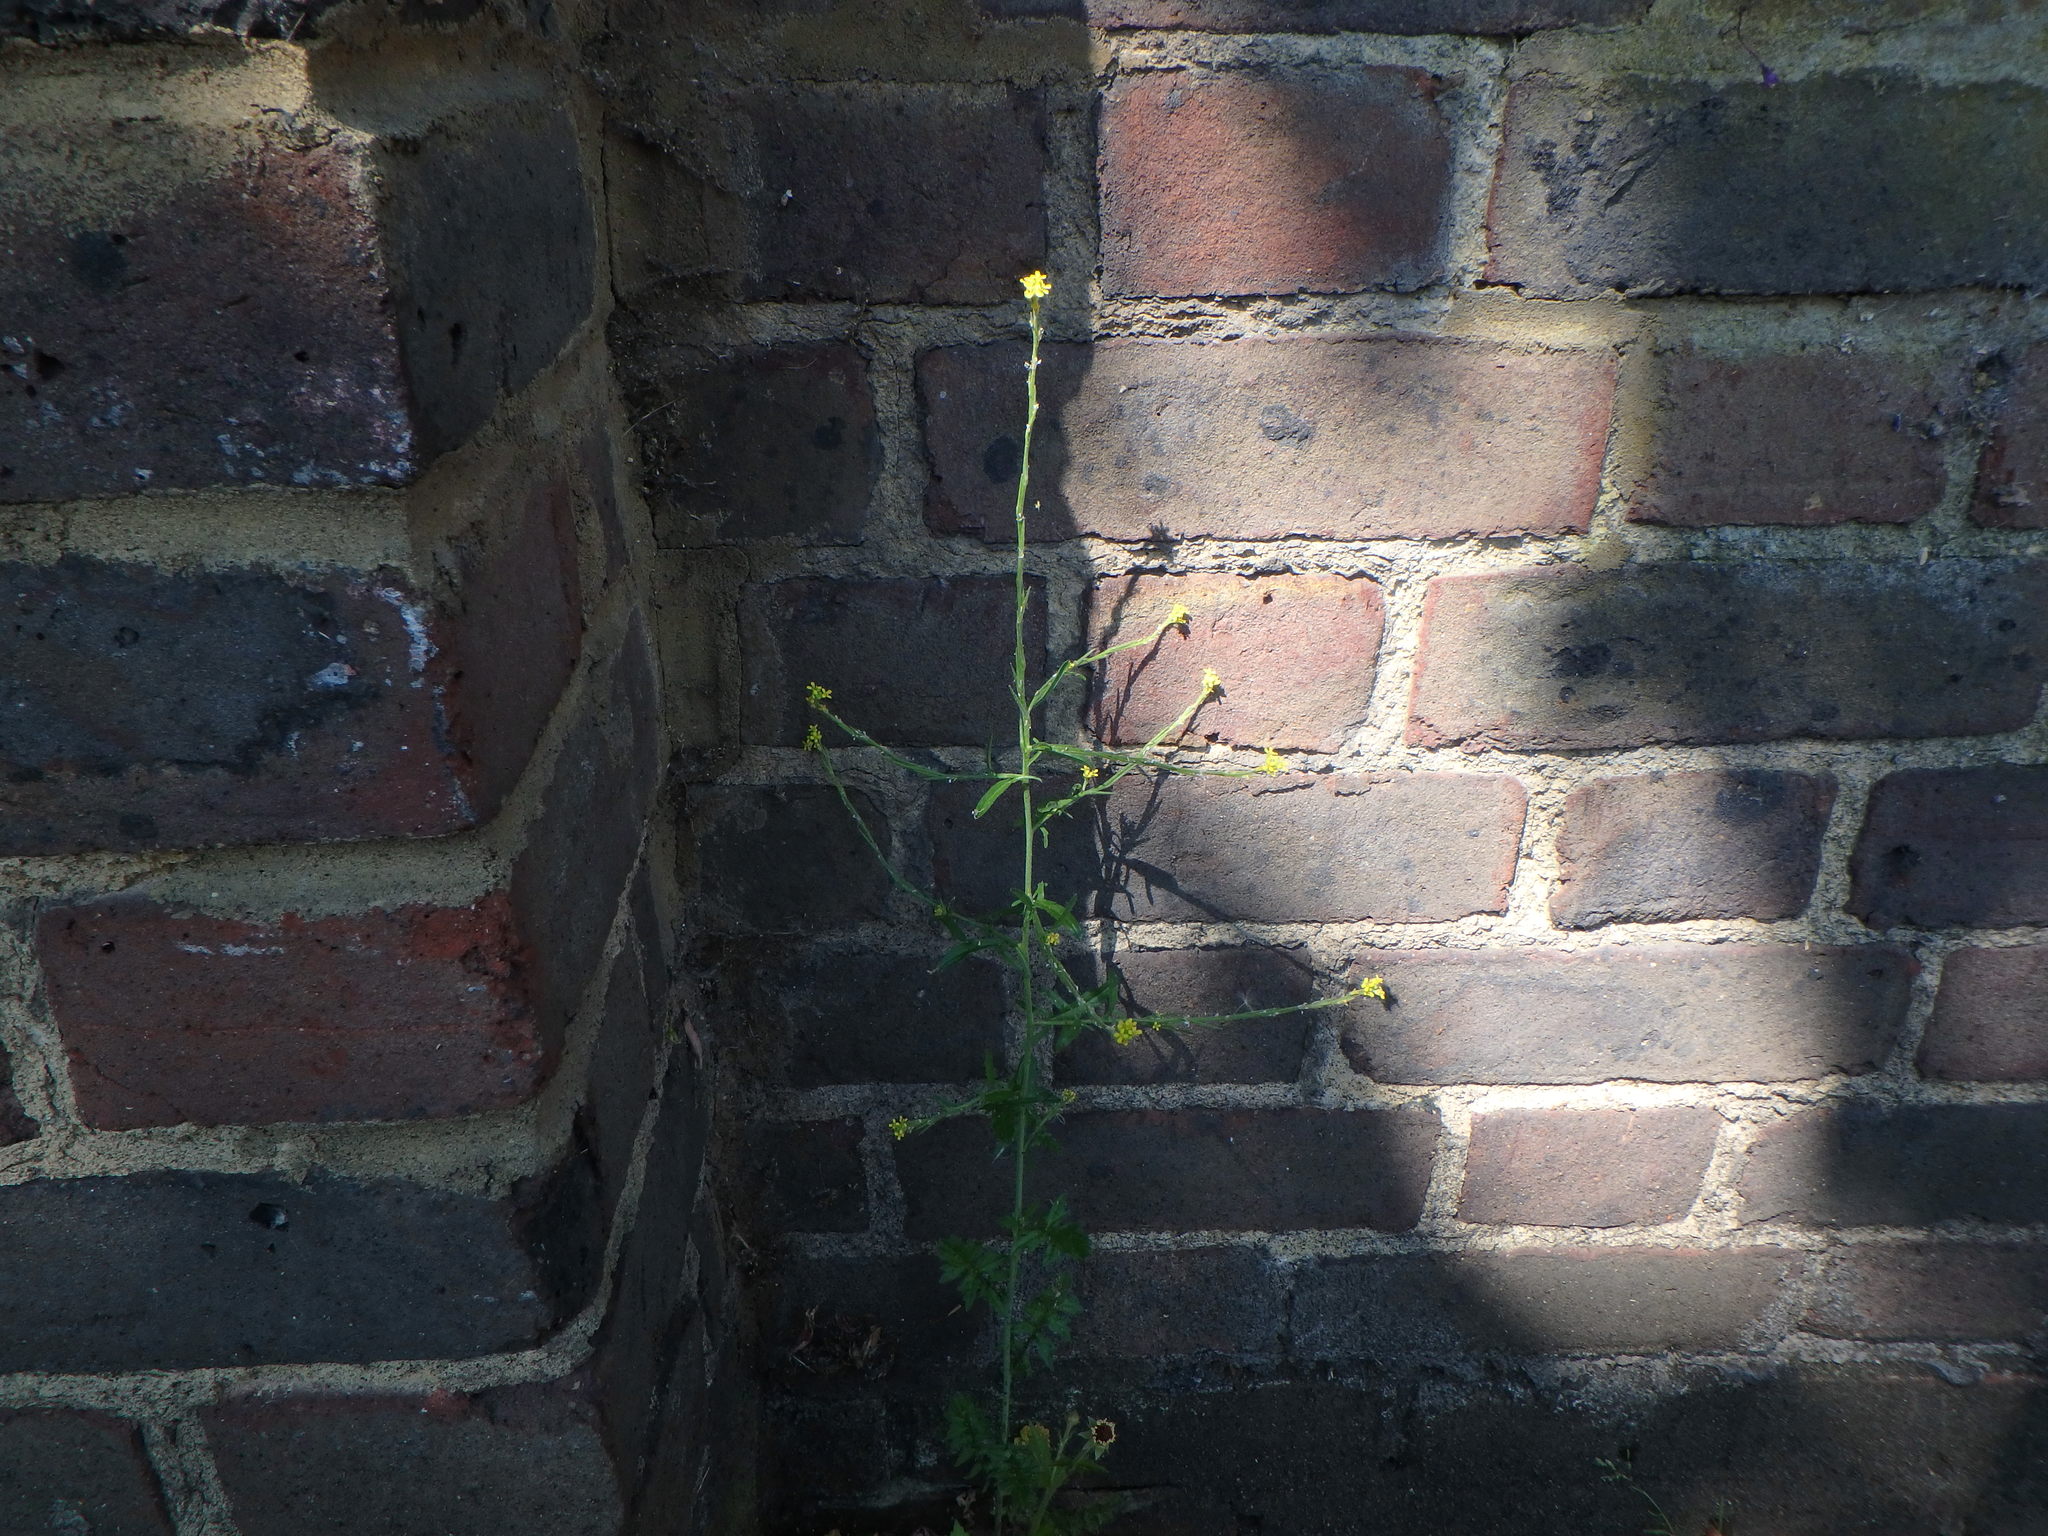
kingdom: Plantae
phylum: Tracheophyta
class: Magnoliopsida
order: Brassicales
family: Brassicaceae
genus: Sisymbrium
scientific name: Sisymbrium officinale
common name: Hedge mustard
